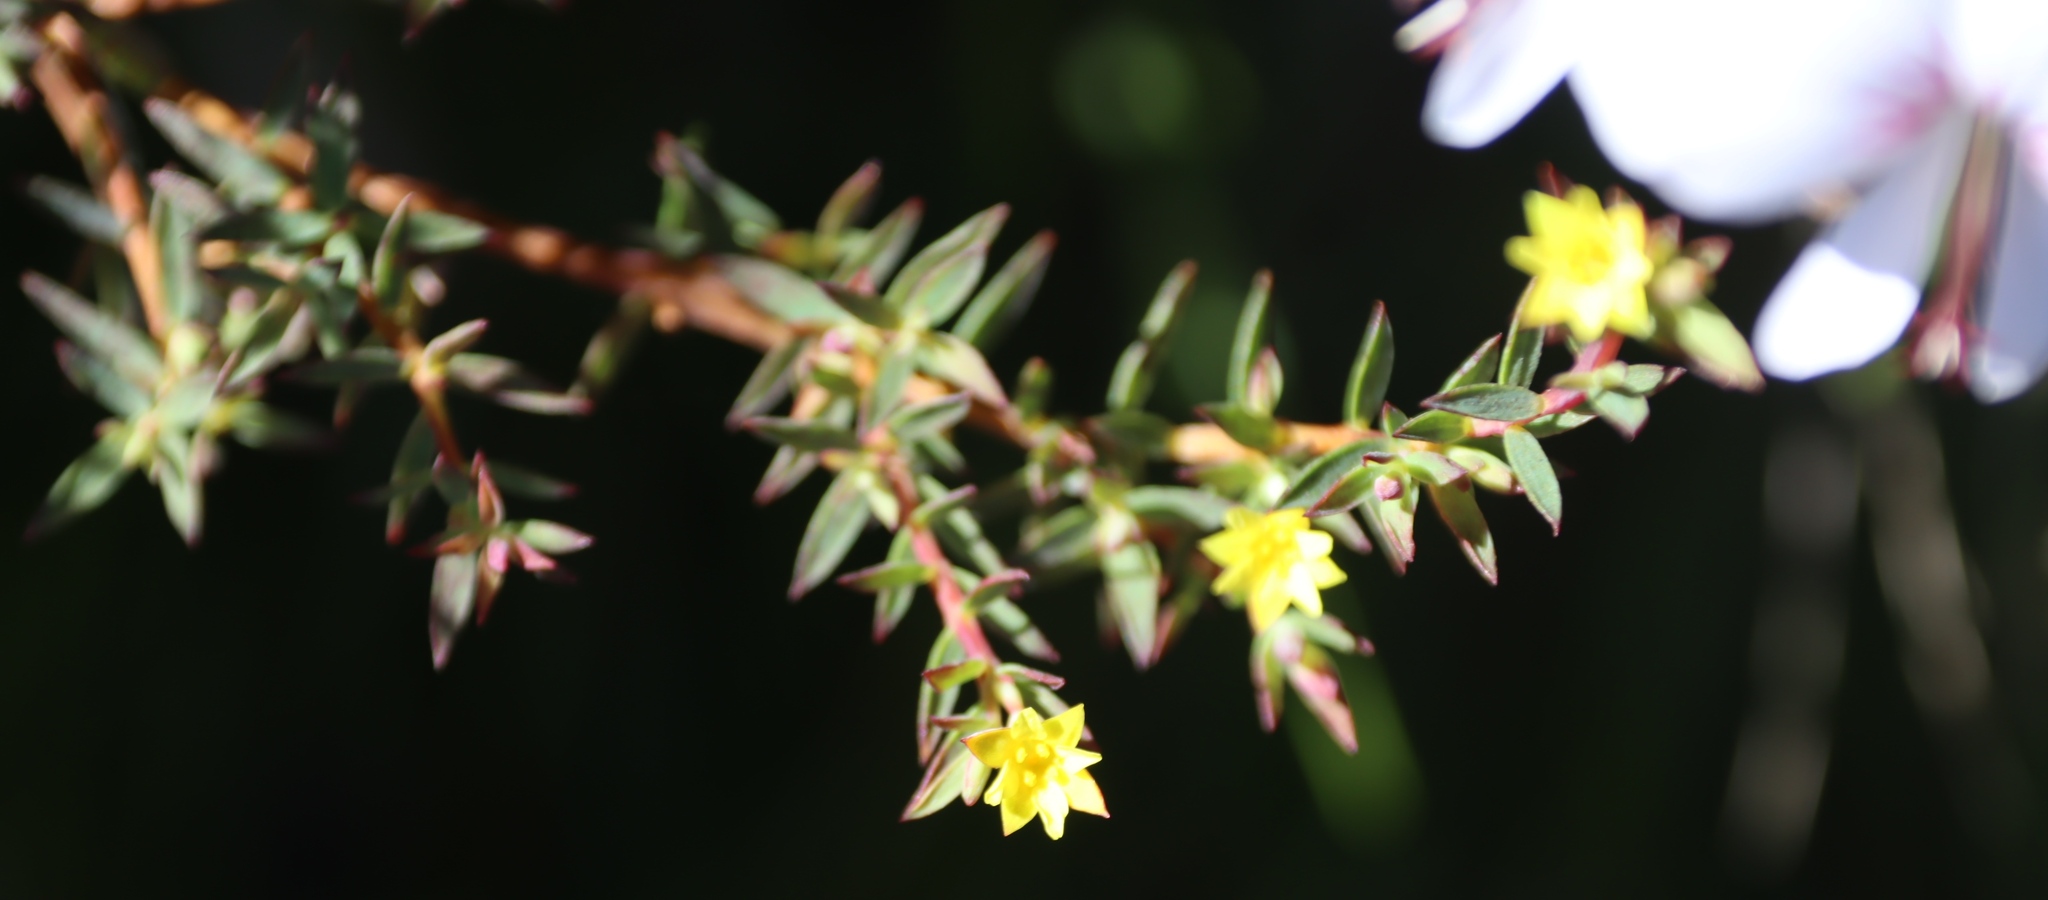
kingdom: Plantae
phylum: Tracheophyta
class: Magnoliopsida
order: Malvales
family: Thymelaeaceae
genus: Gnidia
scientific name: Gnidia juniperifolia
